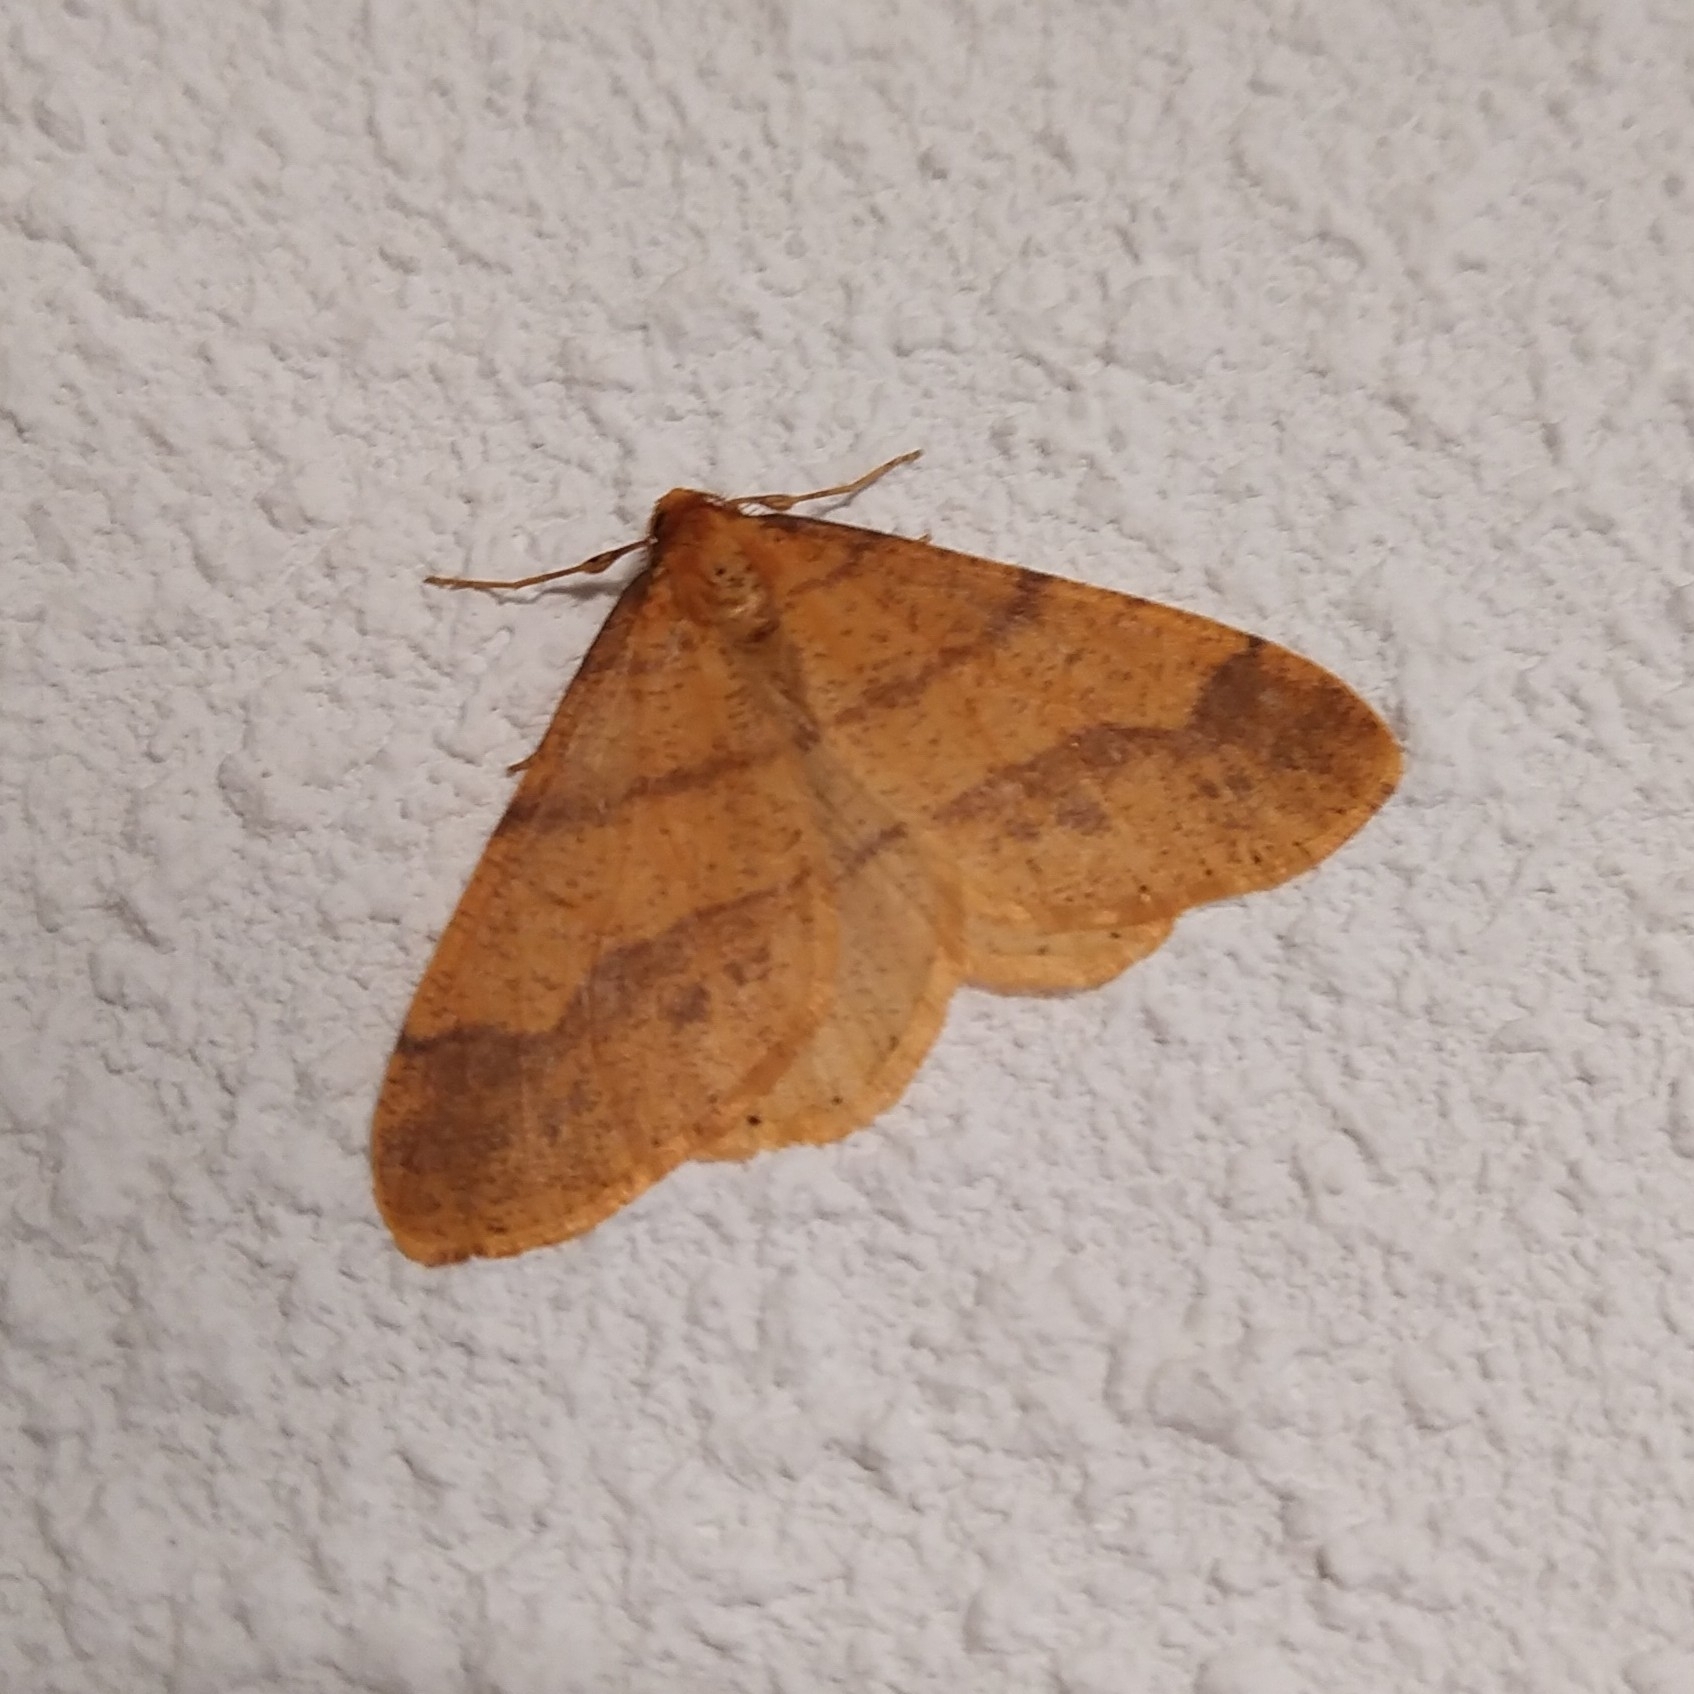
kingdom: Animalia
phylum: Arthropoda
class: Insecta
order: Lepidoptera
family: Geometridae
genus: Agriopis
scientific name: Agriopis aurantiaria
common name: Scarce umber
